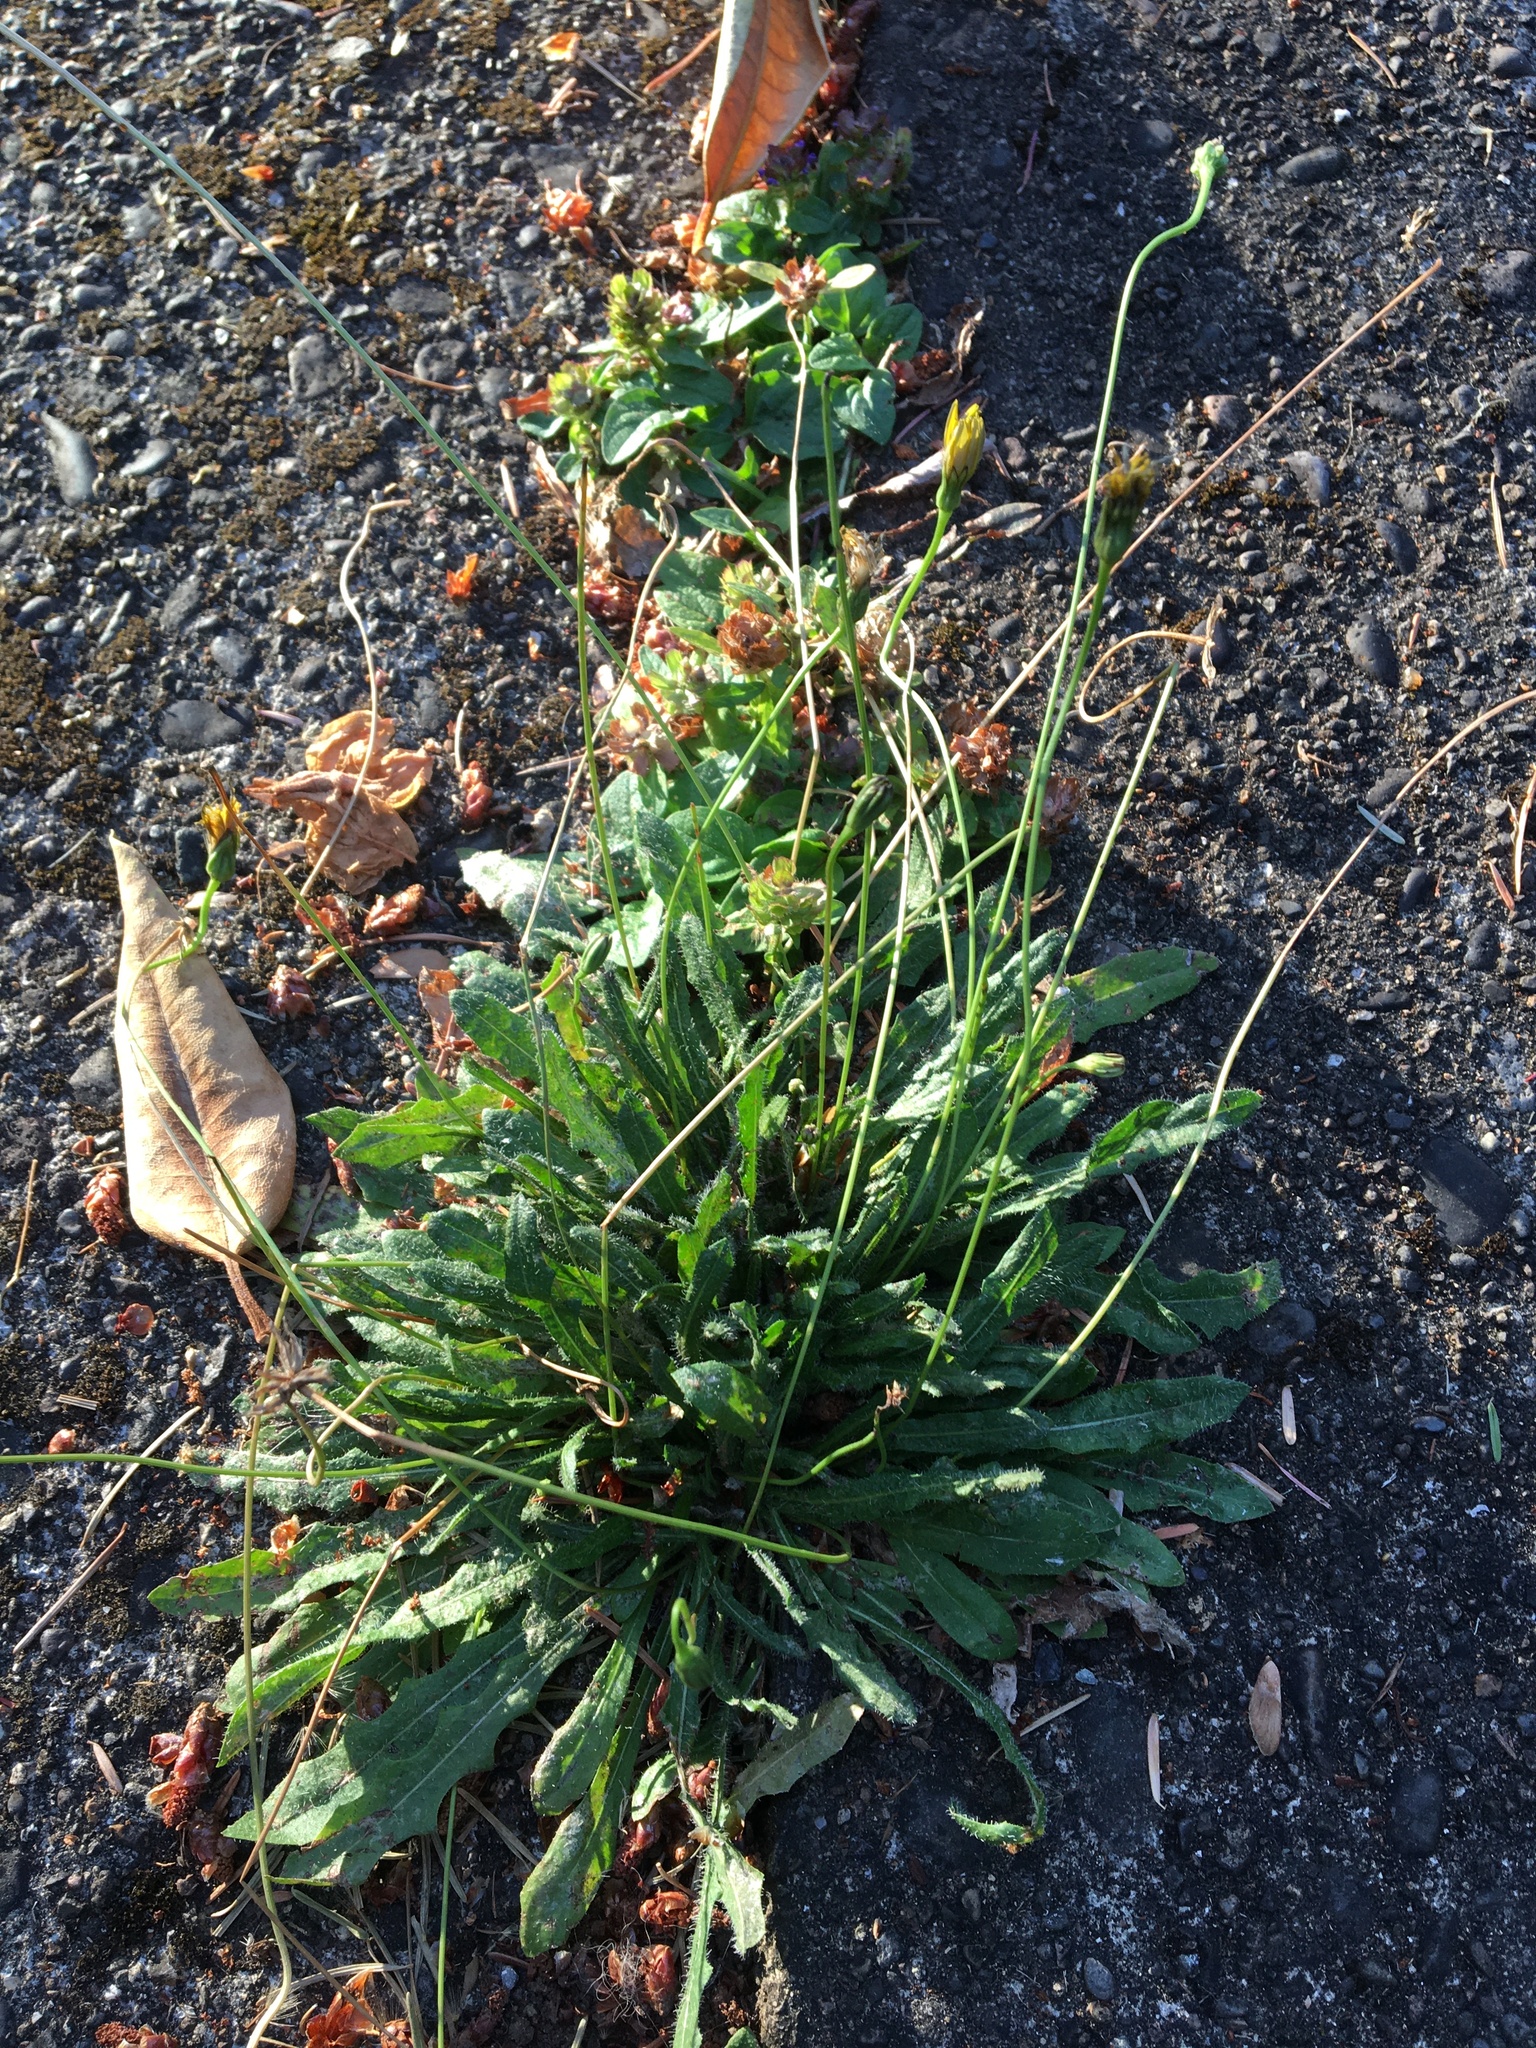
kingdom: Plantae
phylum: Tracheophyta
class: Magnoliopsida
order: Asterales
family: Asteraceae
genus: Hypochaeris
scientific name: Hypochaeris radicata
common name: Flatweed
